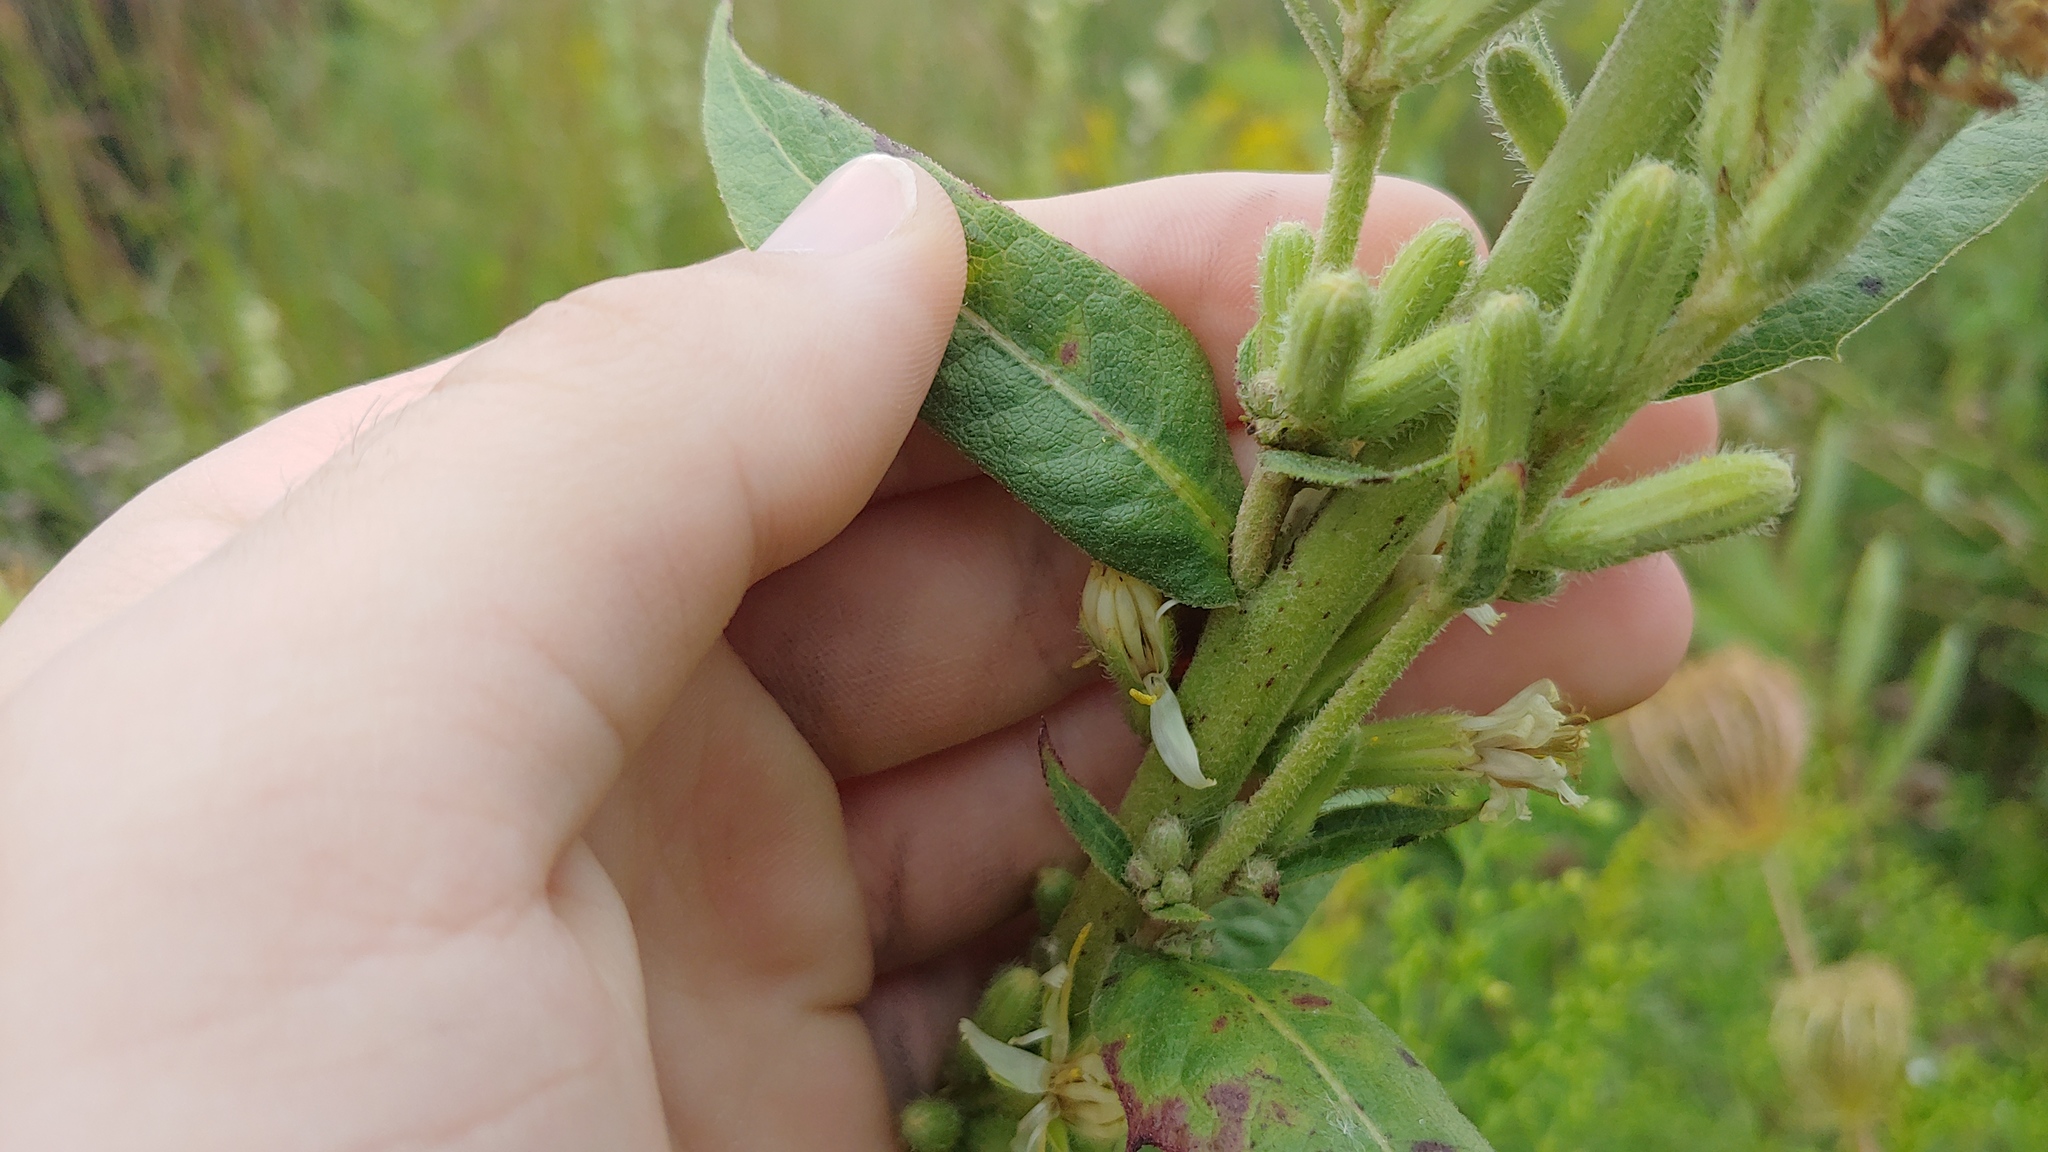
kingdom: Plantae
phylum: Tracheophyta
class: Magnoliopsida
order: Asterales
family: Asteraceae
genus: Nabalus
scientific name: Nabalus asper
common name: Rough rattlesnakeroot
